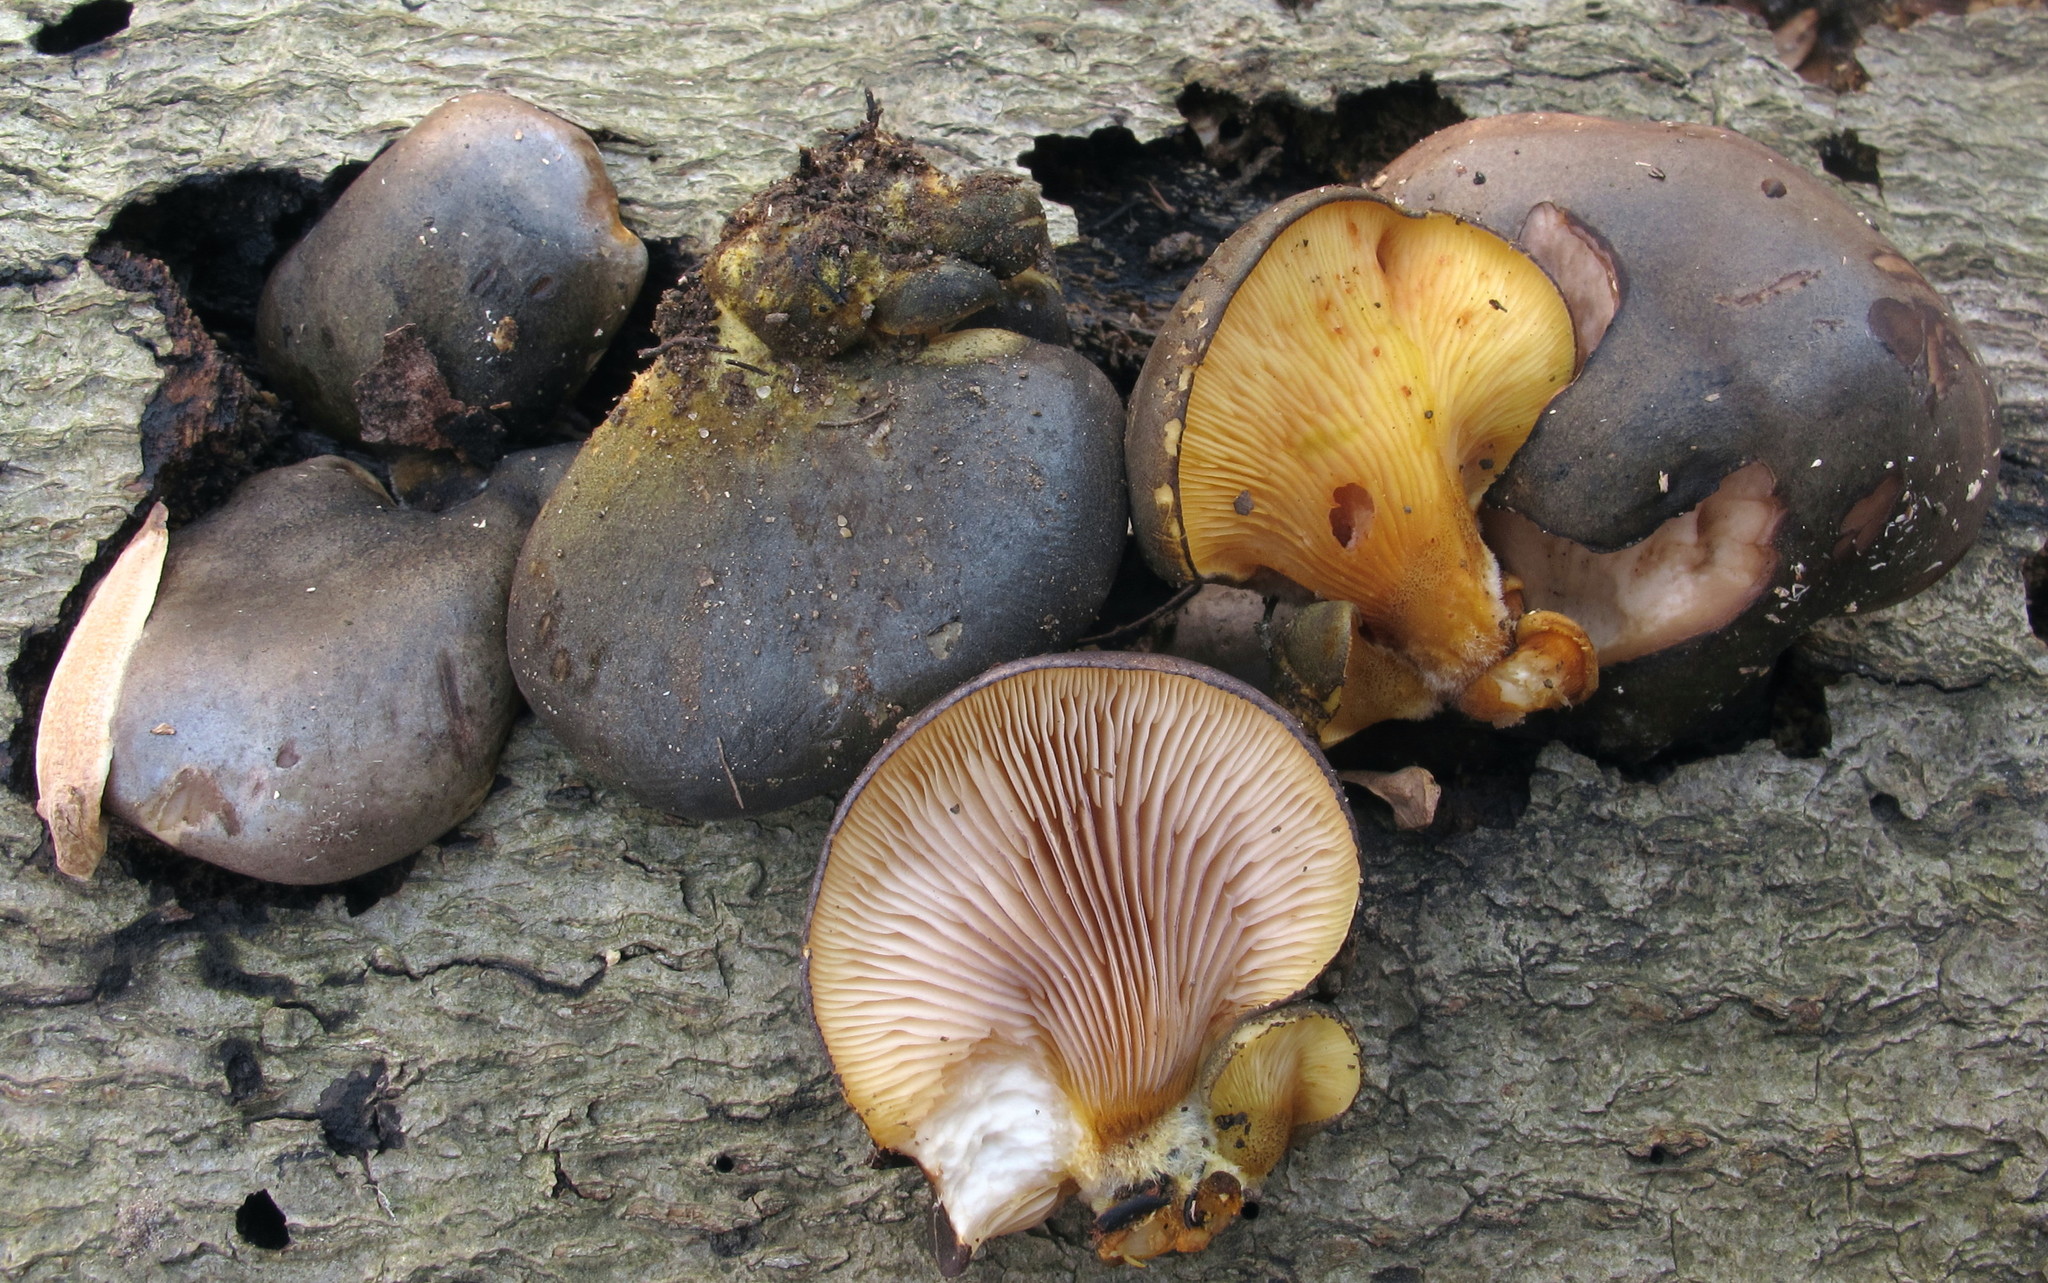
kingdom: Fungi
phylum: Basidiomycota
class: Agaricomycetes
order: Agaricales
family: Sarcomyxaceae
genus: Sarcomyxa
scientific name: Sarcomyxa serotina
